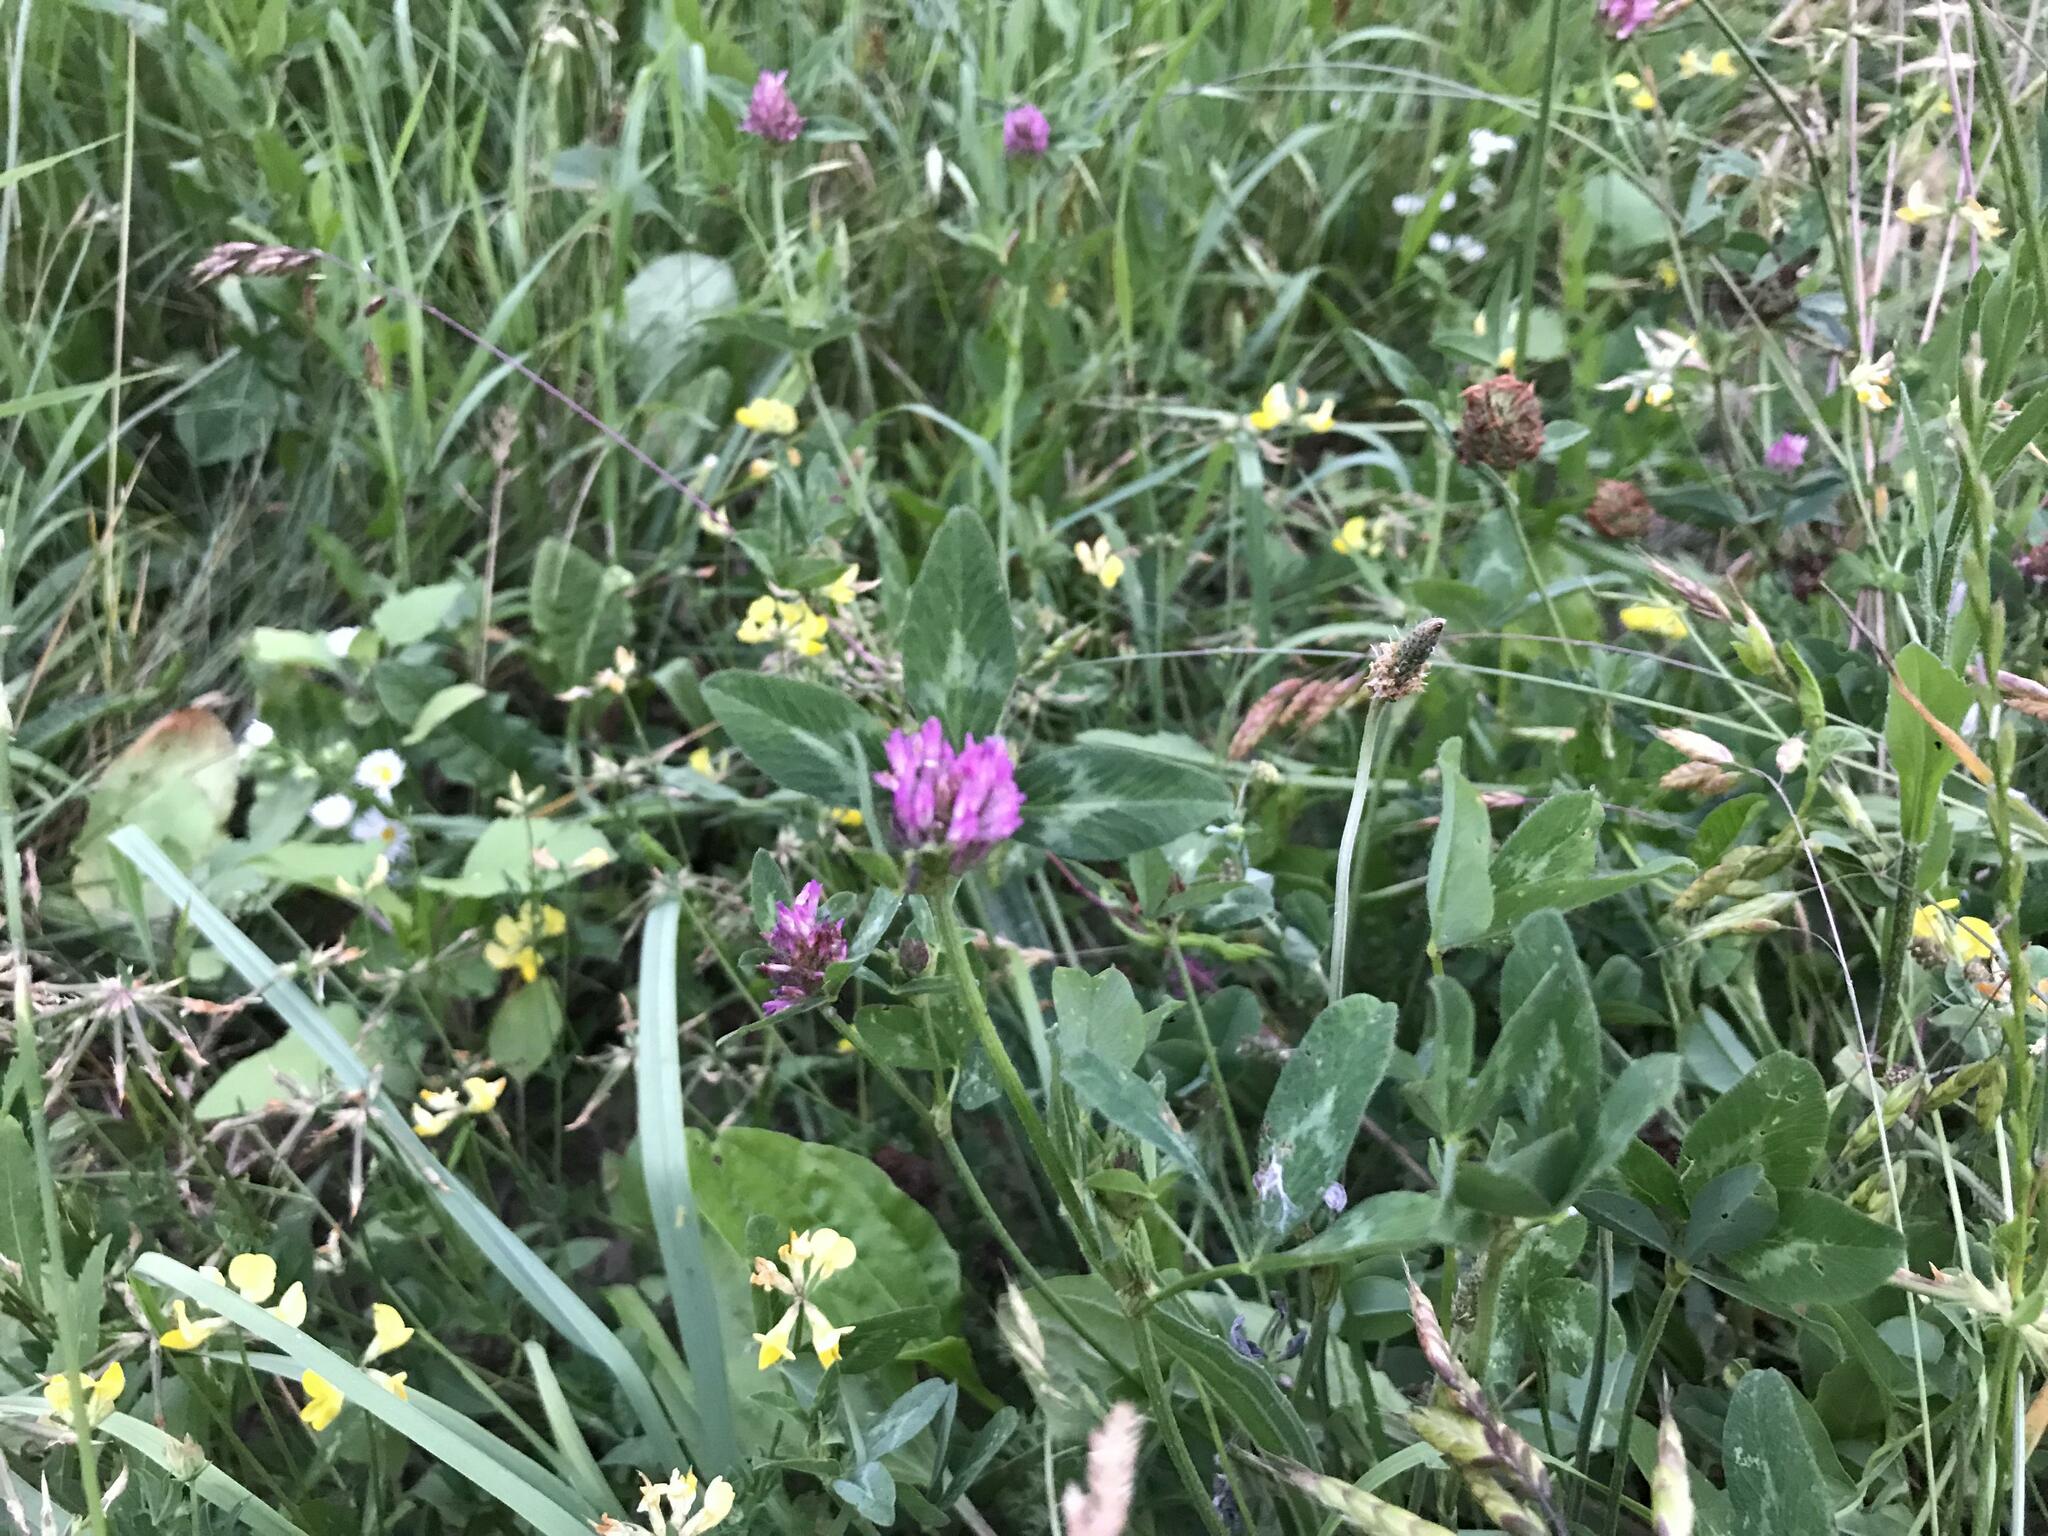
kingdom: Plantae
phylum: Tracheophyta
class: Magnoliopsida
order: Fabales
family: Fabaceae
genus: Trifolium
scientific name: Trifolium pratense
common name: Red clover
